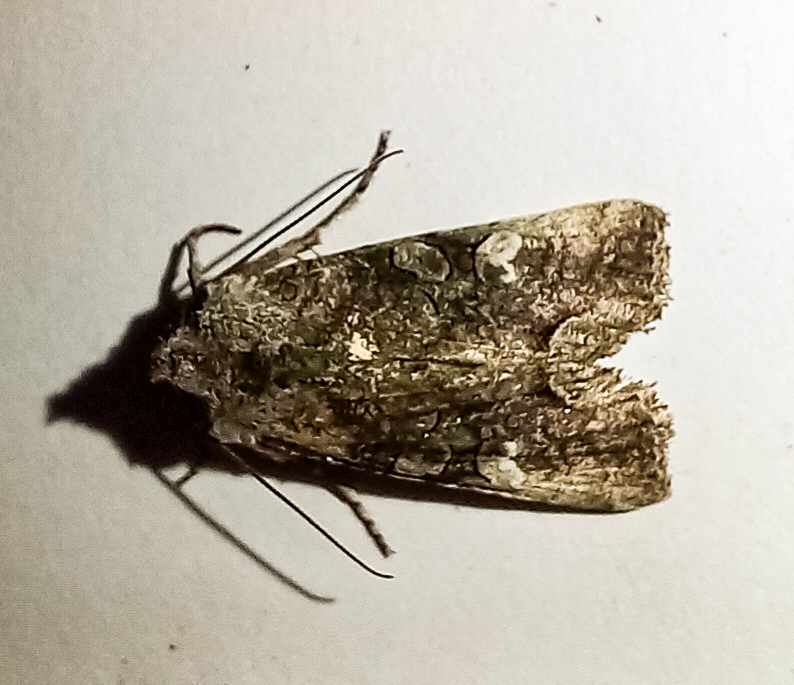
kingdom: Animalia
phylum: Arthropoda
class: Insecta
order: Lepidoptera
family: Noctuidae
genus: Meterana
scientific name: Meterana levis
